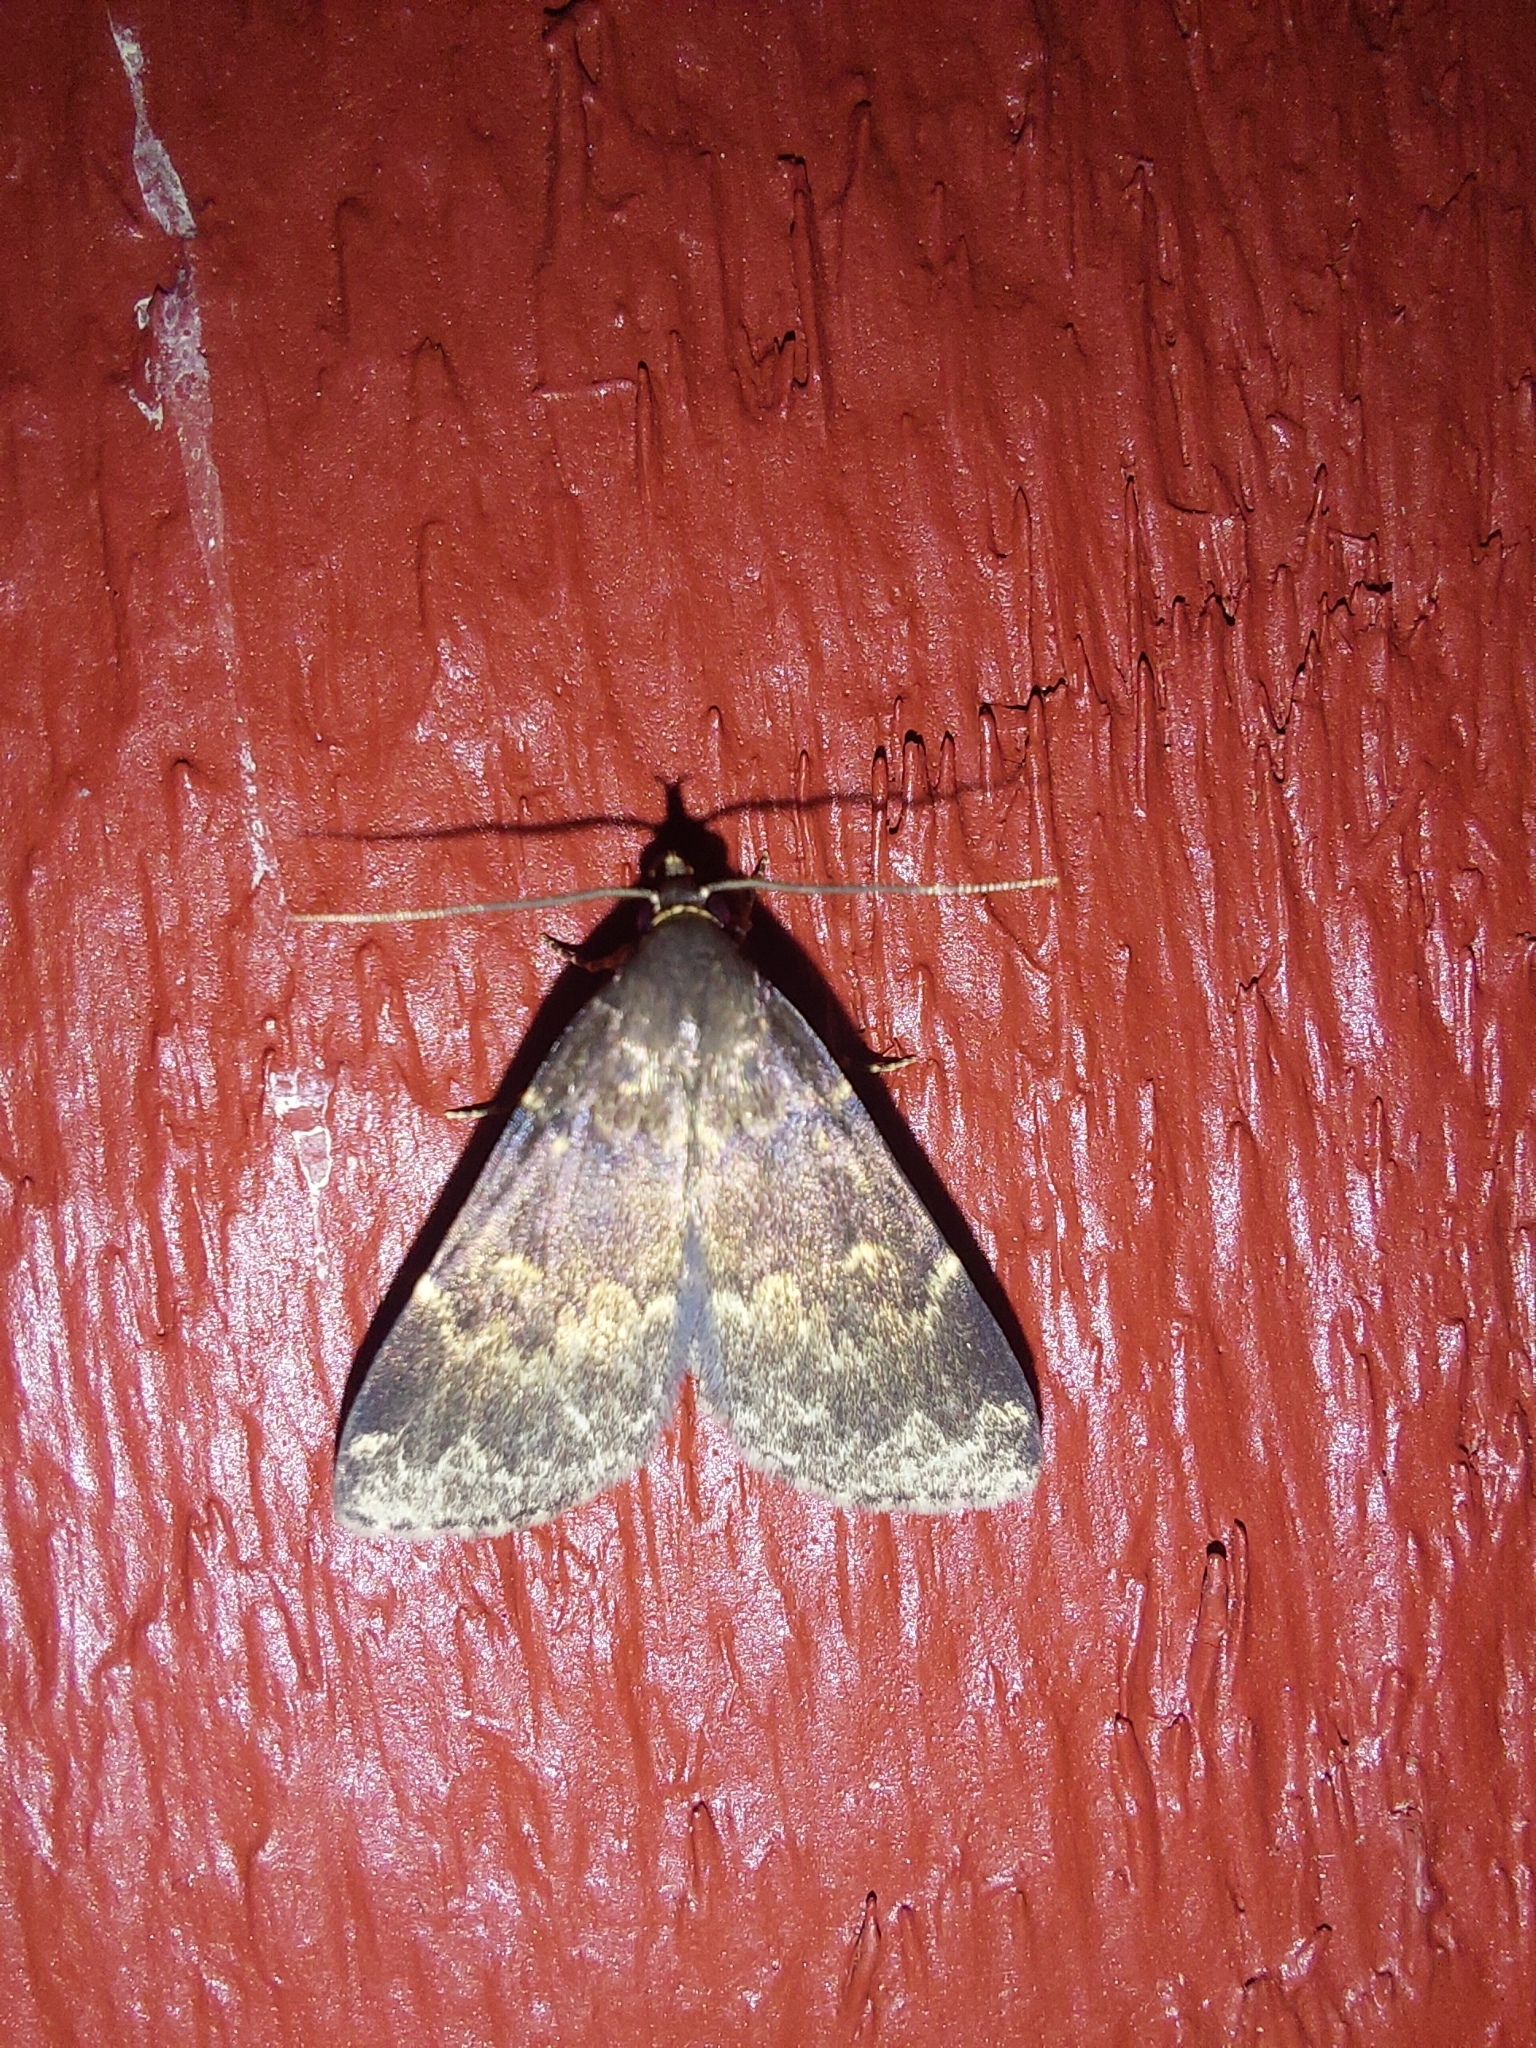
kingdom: Animalia
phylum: Arthropoda
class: Insecta
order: Lepidoptera
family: Erebidae
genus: Idia
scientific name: Idia lubricalis
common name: Twin-striped tabby
